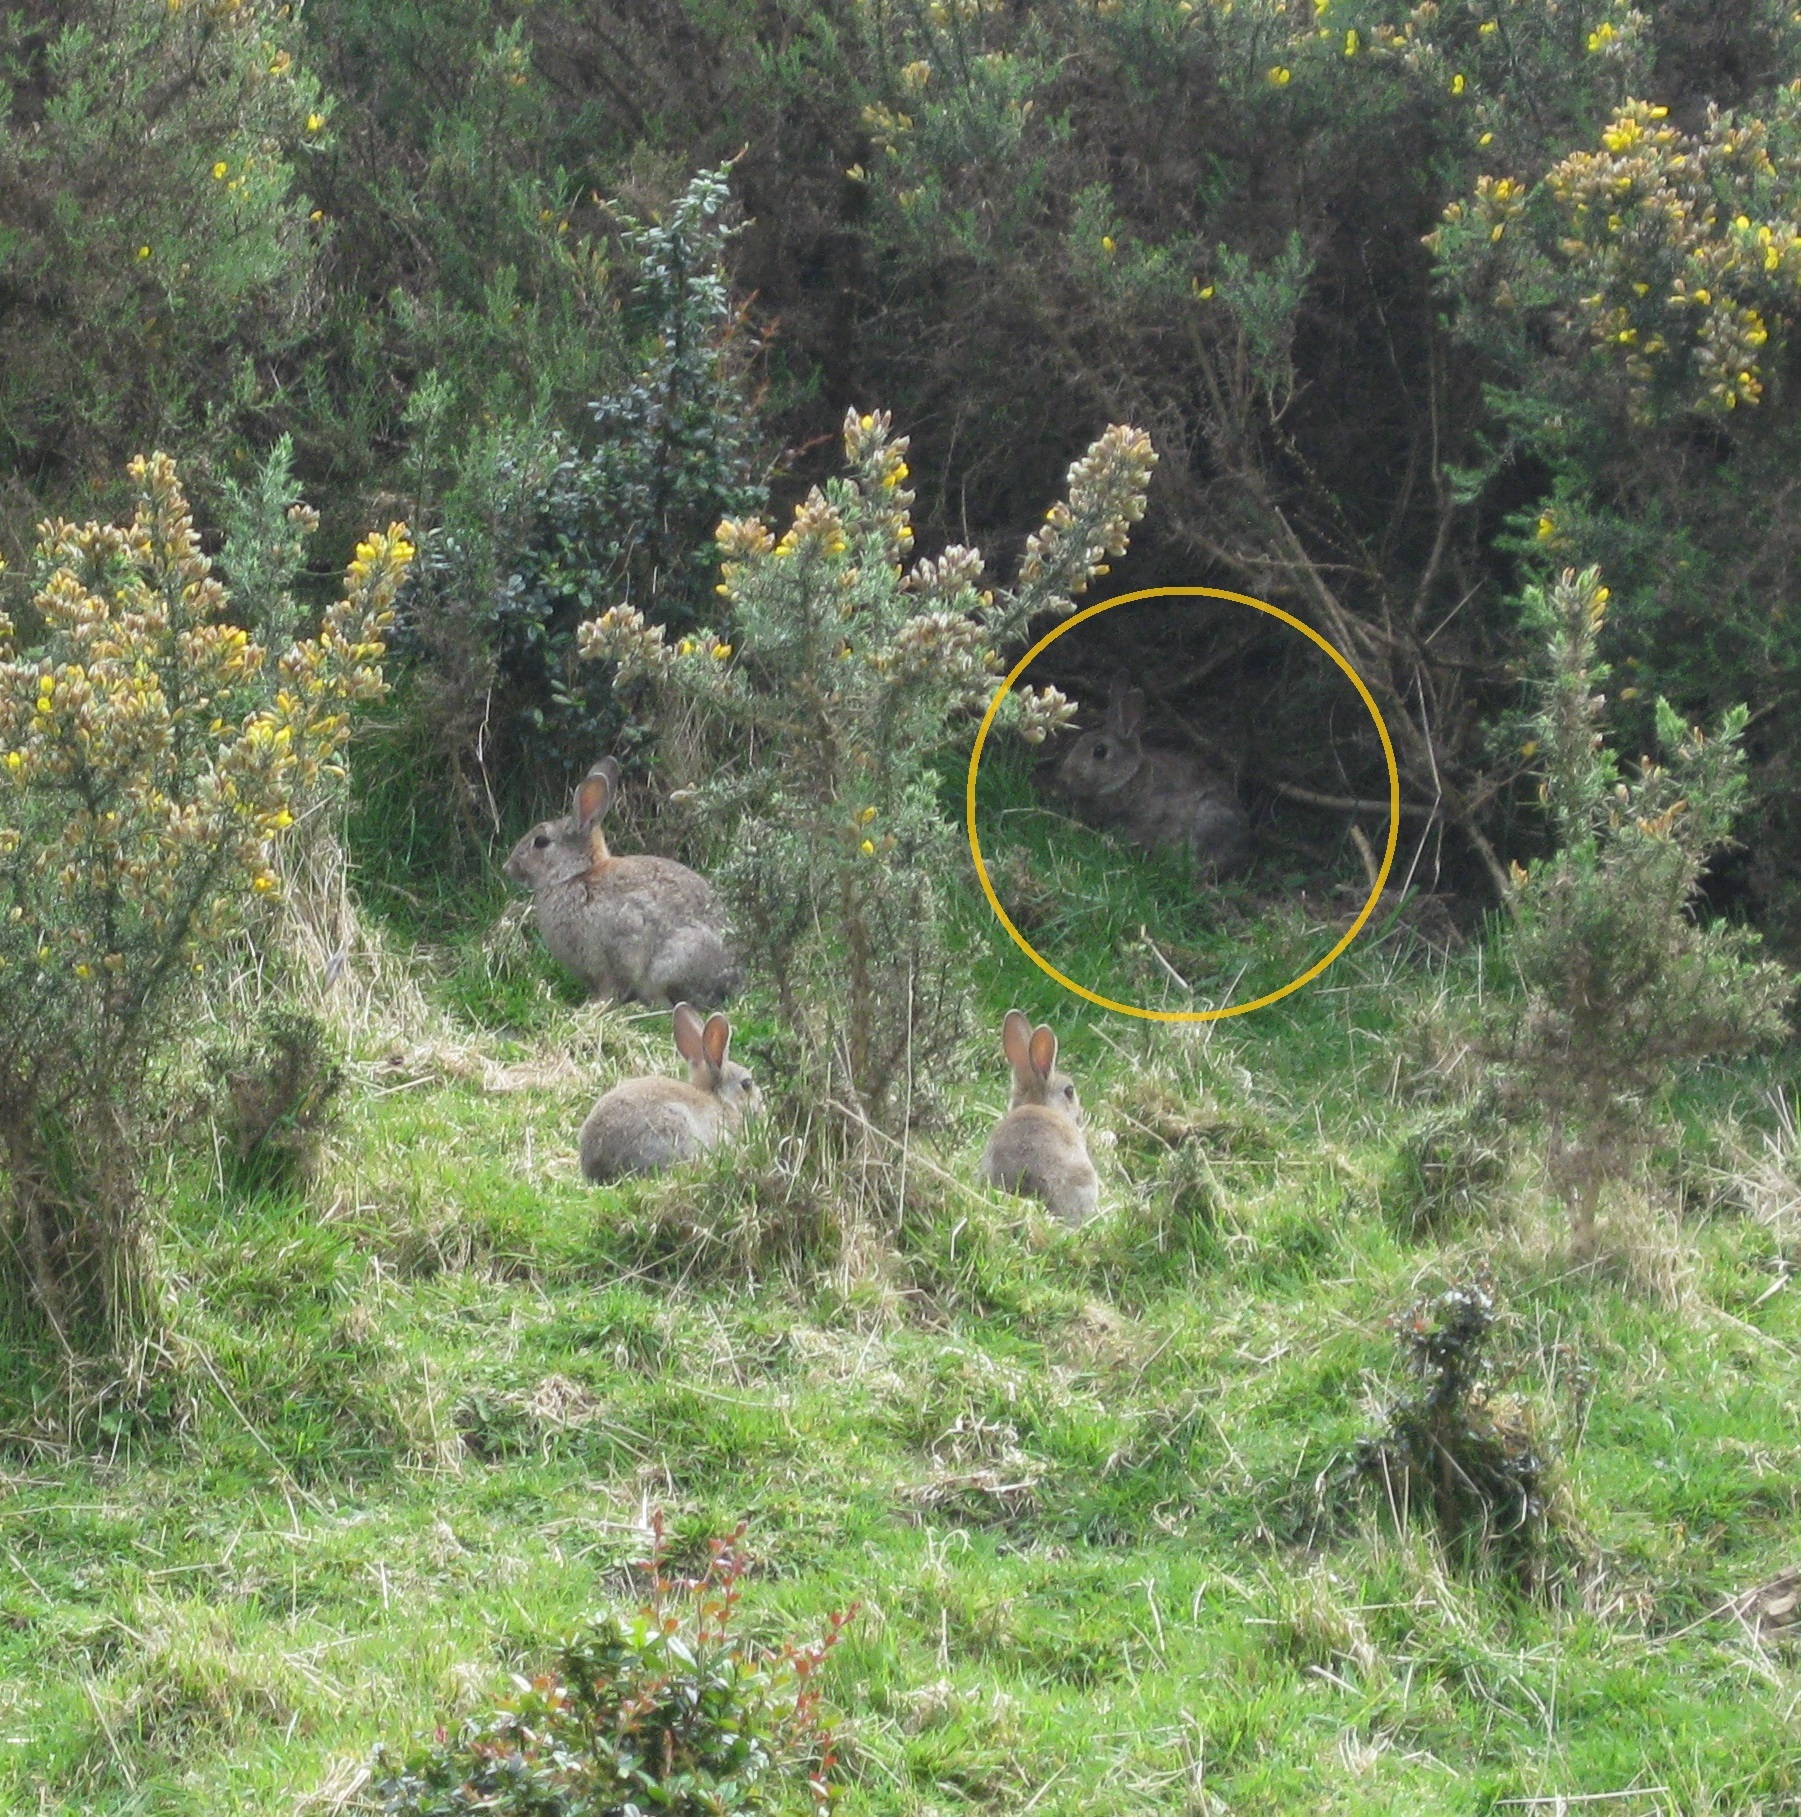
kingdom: Animalia
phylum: Chordata
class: Mammalia
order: Lagomorpha
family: Leporidae
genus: Oryctolagus
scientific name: Oryctolagus cuniculus
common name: European rabbit
